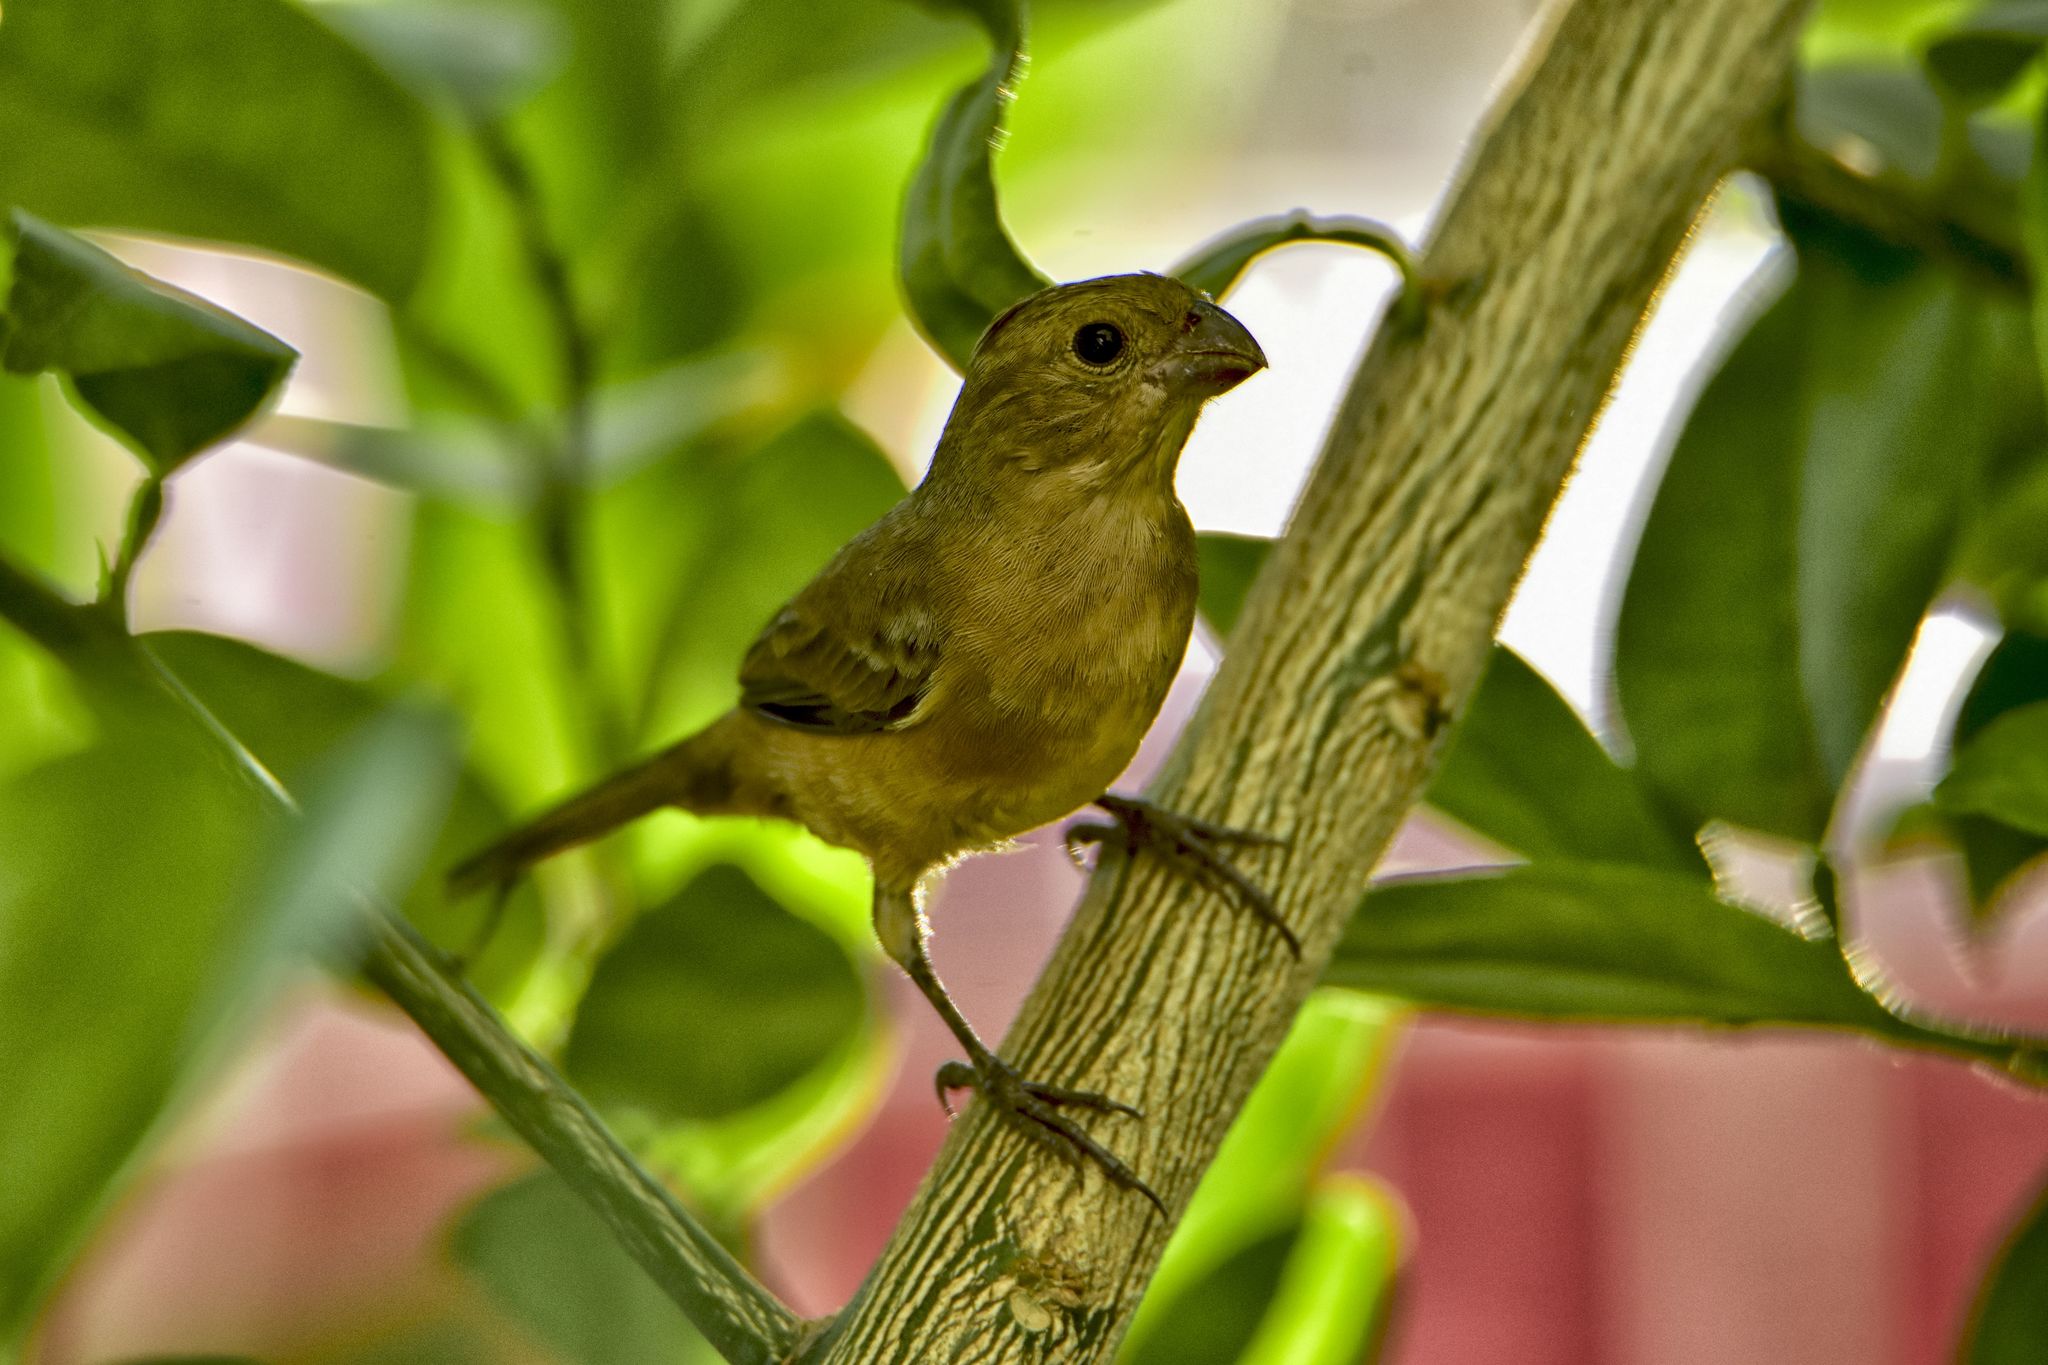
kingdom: Animalia
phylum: Chordata
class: Aves
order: Passeriformes
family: Thraupidae
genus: Sporophila
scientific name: Sporophila torqueola
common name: White-collared seedeater
